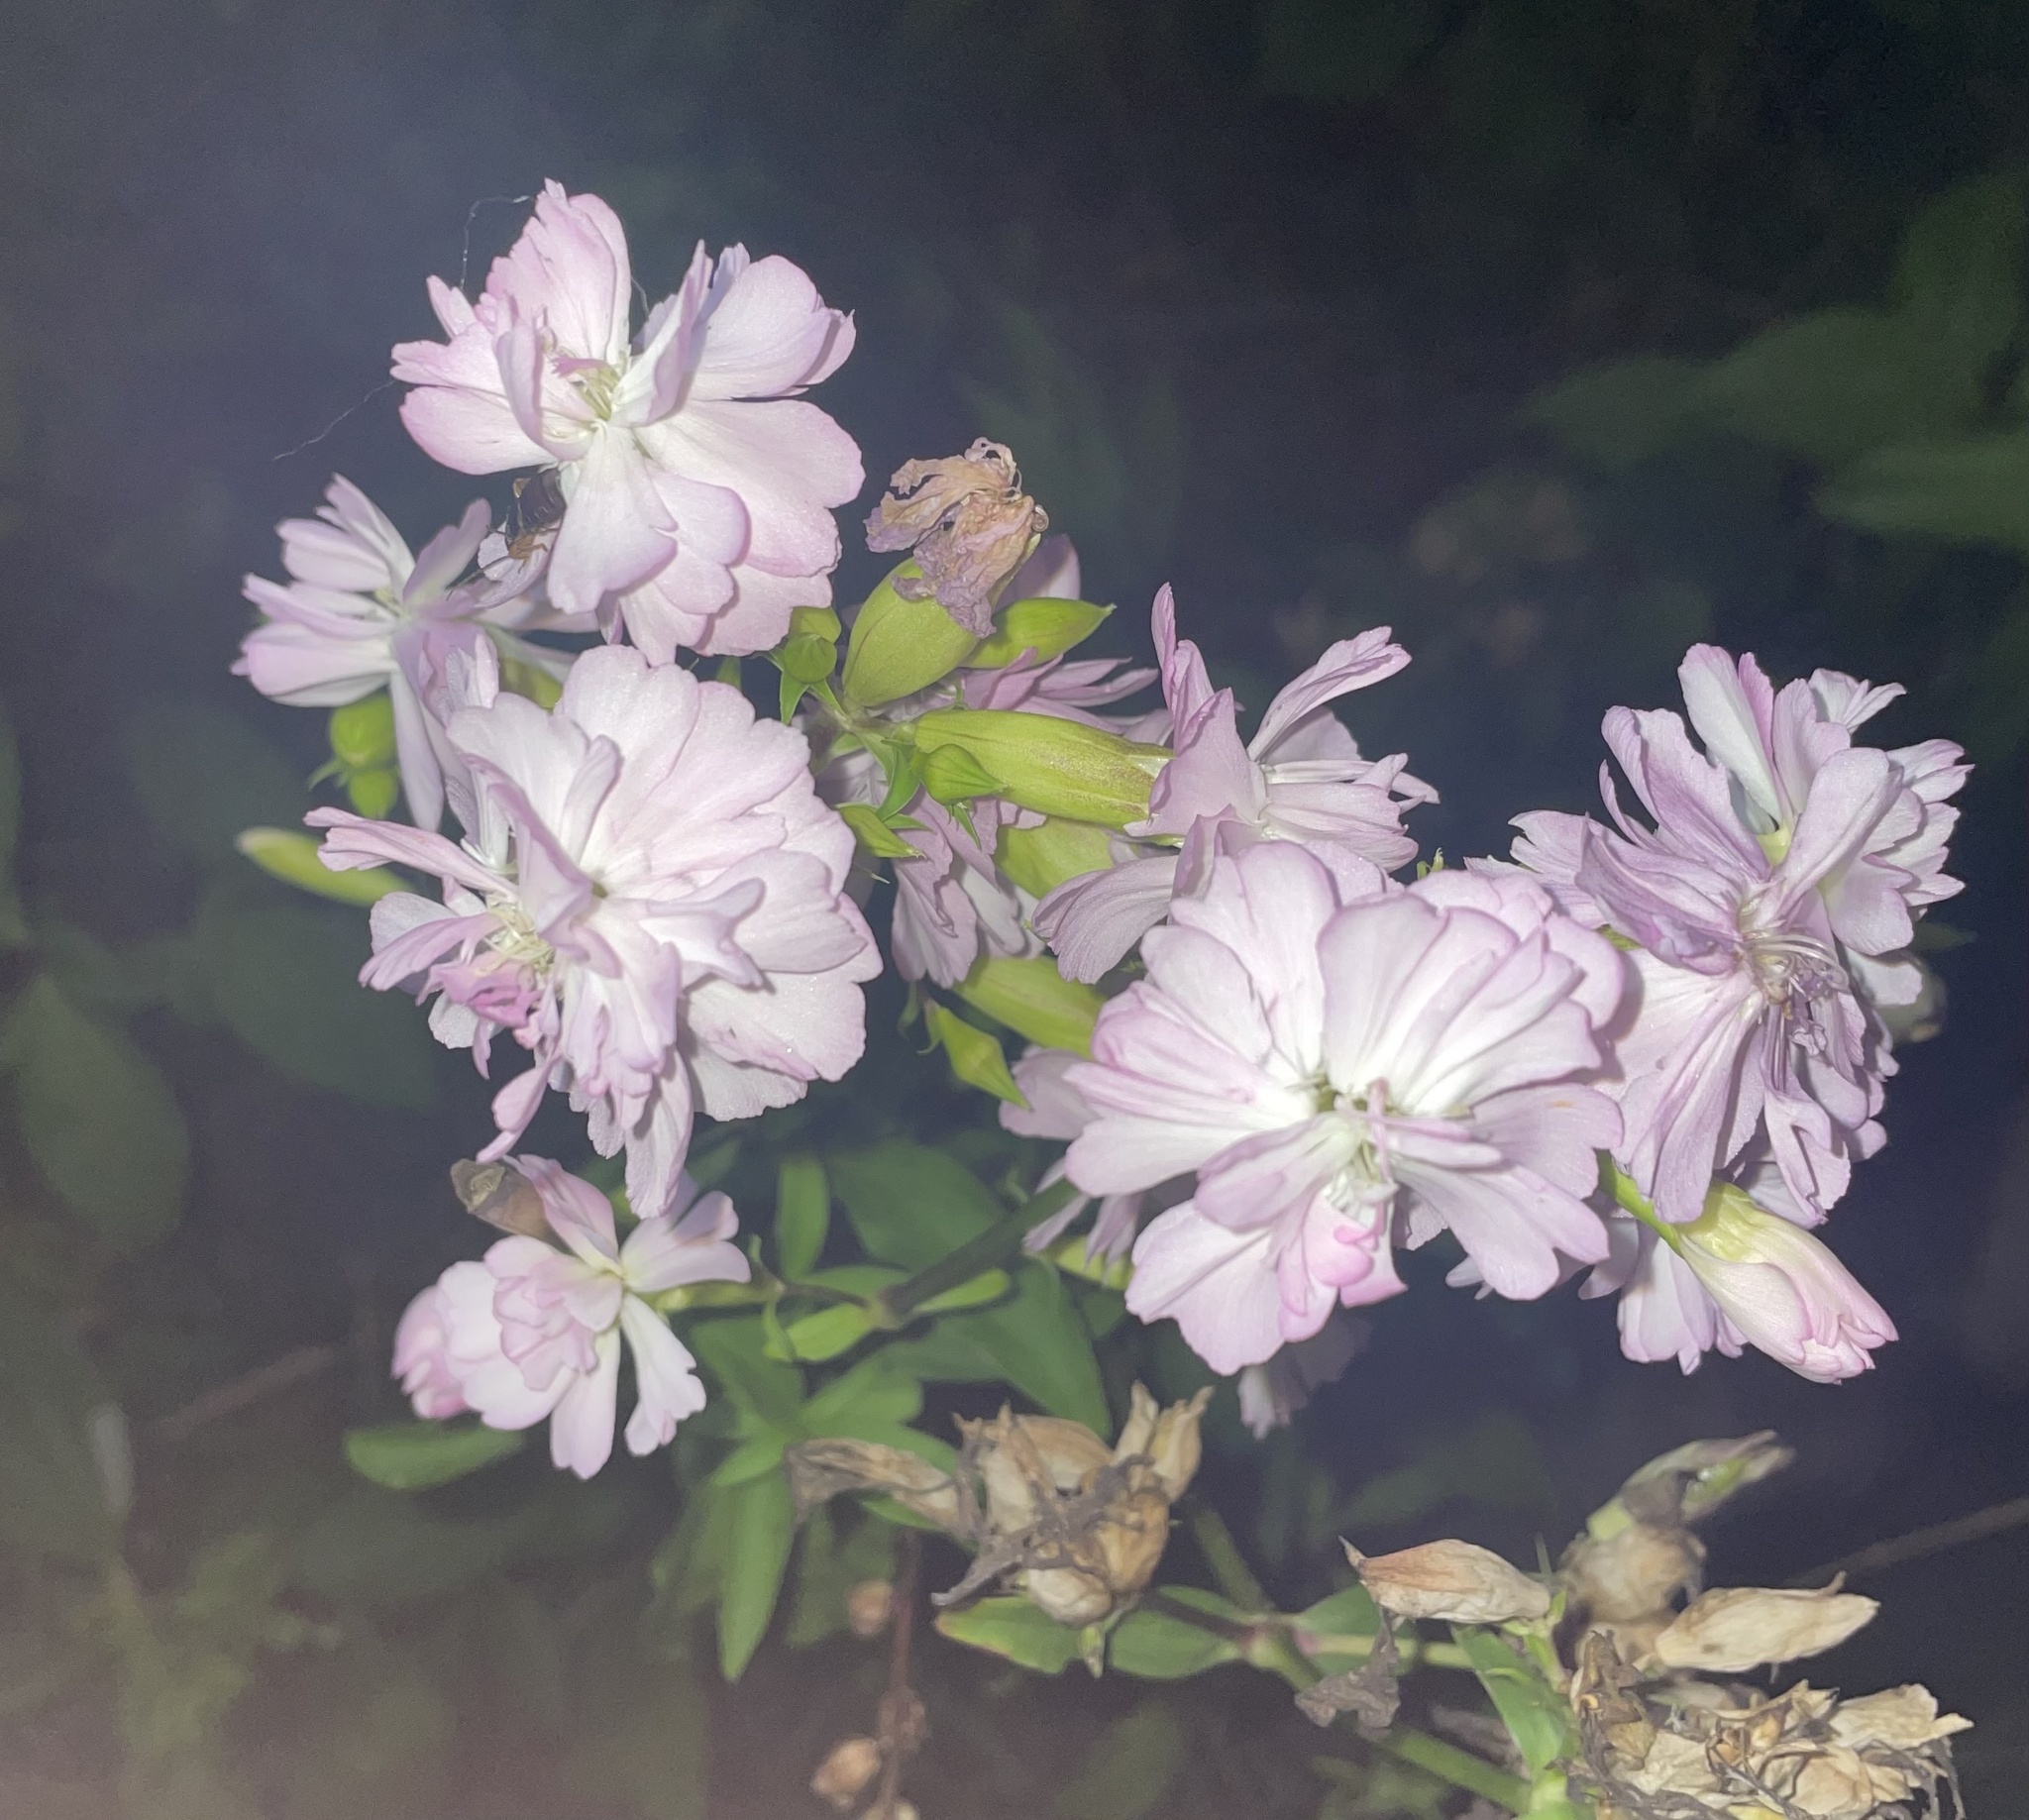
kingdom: Plantae
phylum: Tracheophyta
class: Magnoliopsida
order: Caryophyllales
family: Caryophyllaceae
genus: Saponaria
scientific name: Saponaria officinalis
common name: Soapwort
